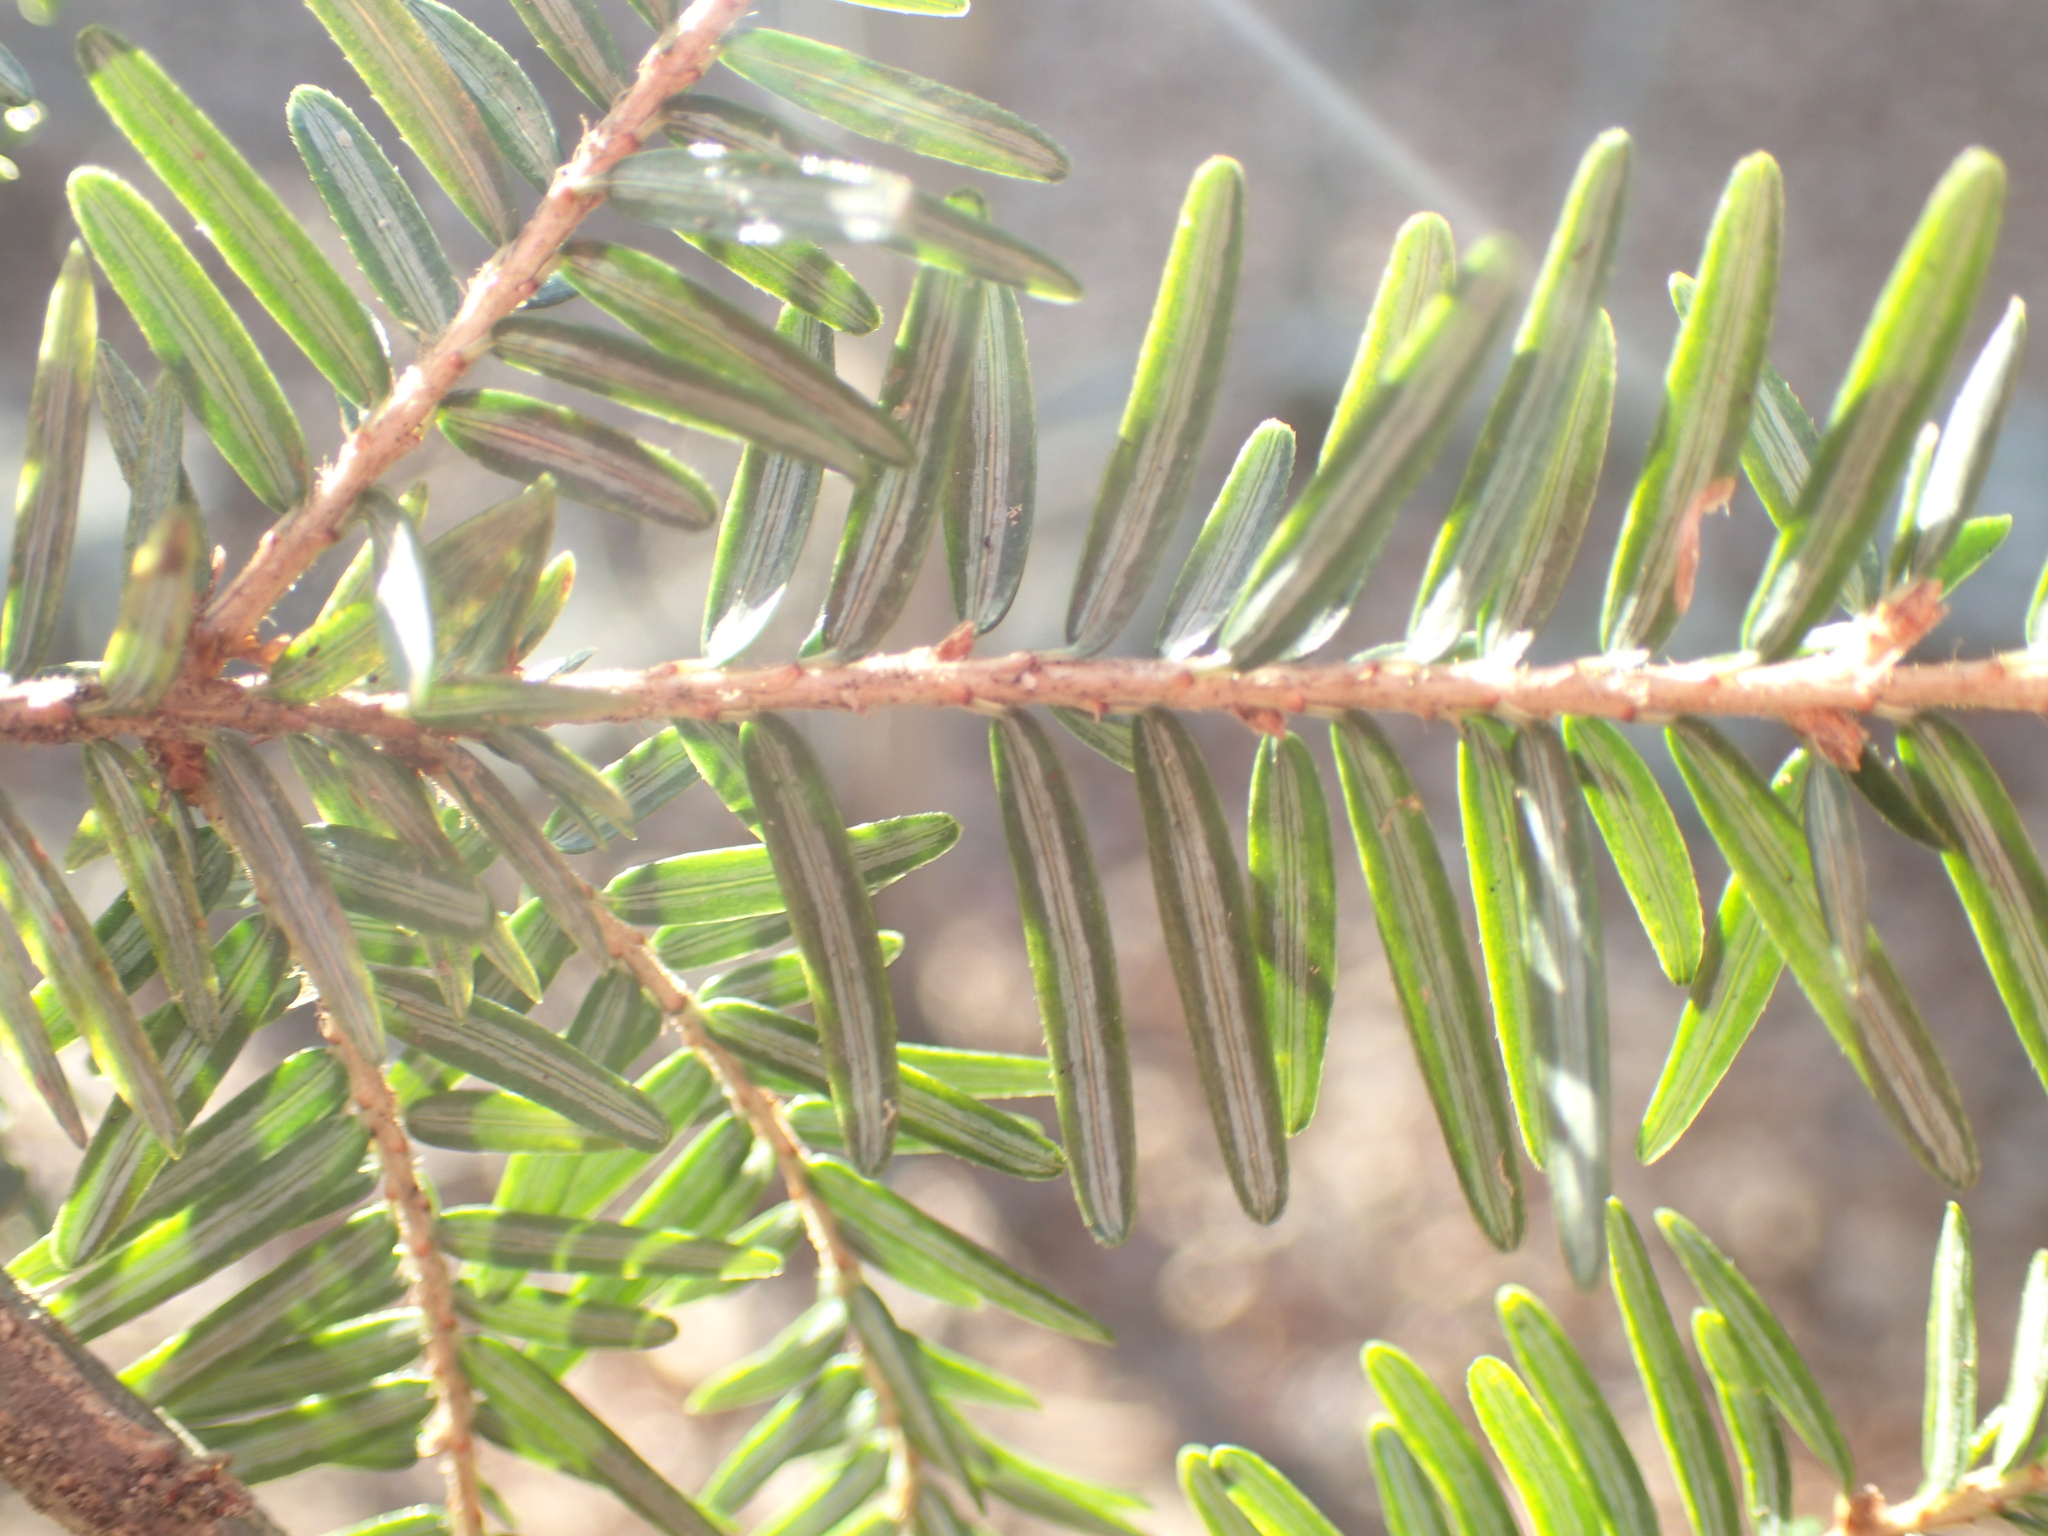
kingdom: Plantae
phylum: Tracheophyta
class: Pinopsida
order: Pinales
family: Pinaceae
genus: Tsuga
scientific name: Tsuga canadensis
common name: Eastern hemlock
